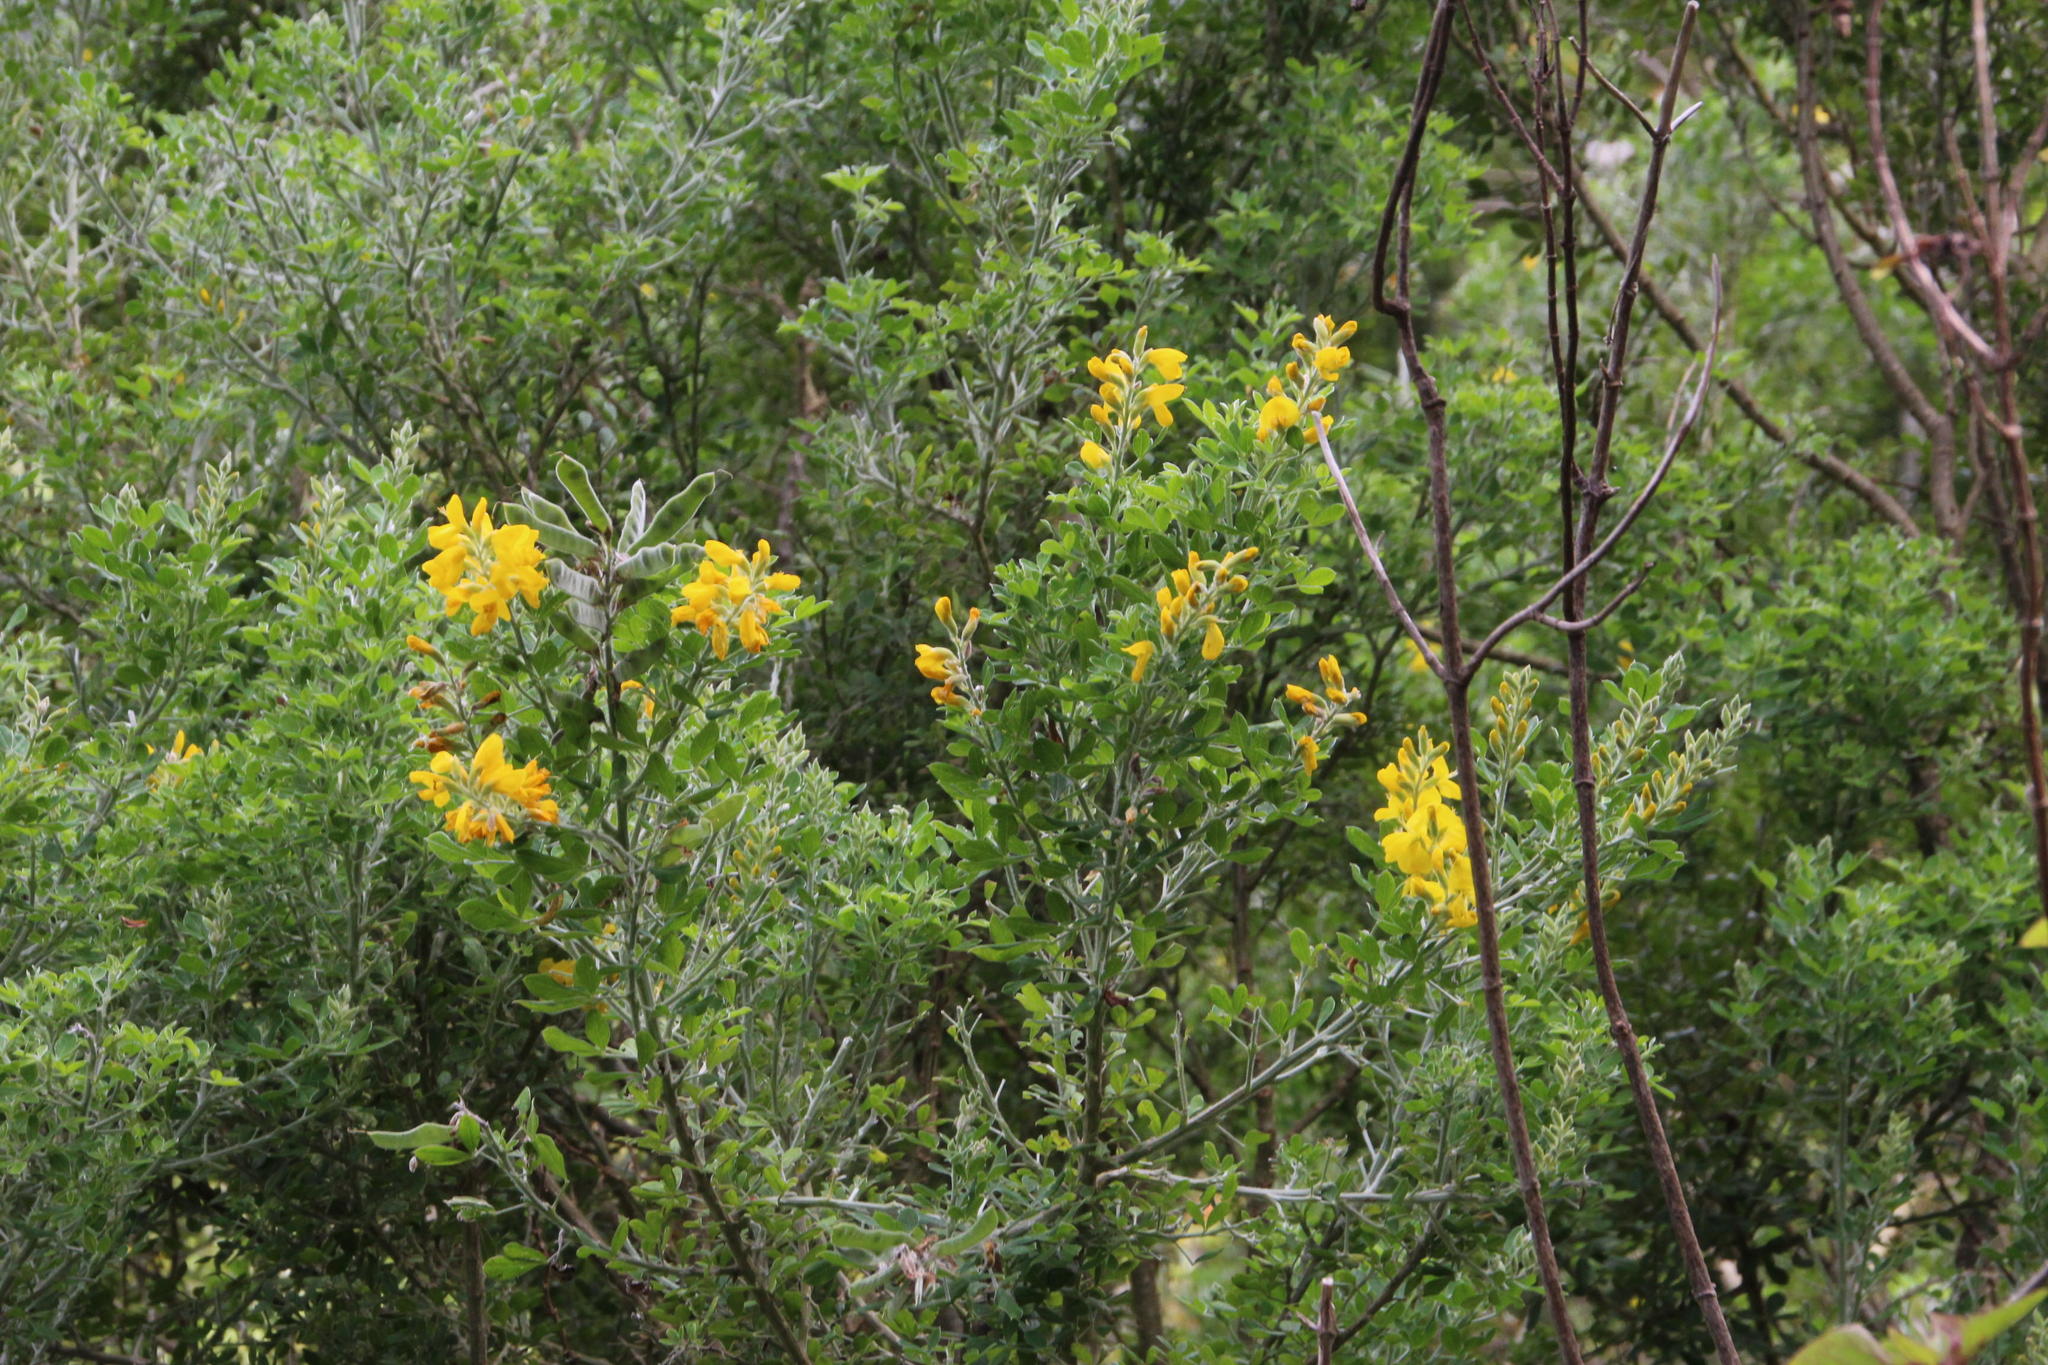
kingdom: Plantae
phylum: Tracheophyta
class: Magnoliopsida
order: Fabales
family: Fabaceae
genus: Genista
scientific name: Genista maderensis
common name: Madeira dyer's greenweed
